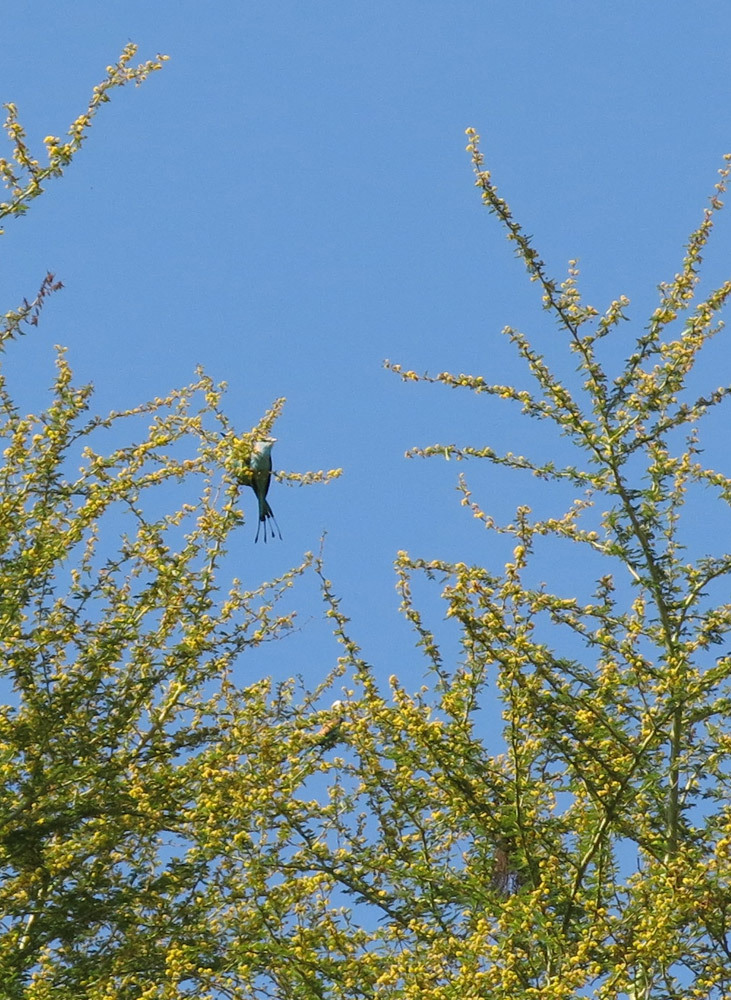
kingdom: Animalia
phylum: Chordata
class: Aves
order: Coraciiformes
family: Coraciidae
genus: Coracias
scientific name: Coracias spatulatus
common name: Racket-tailed roller
